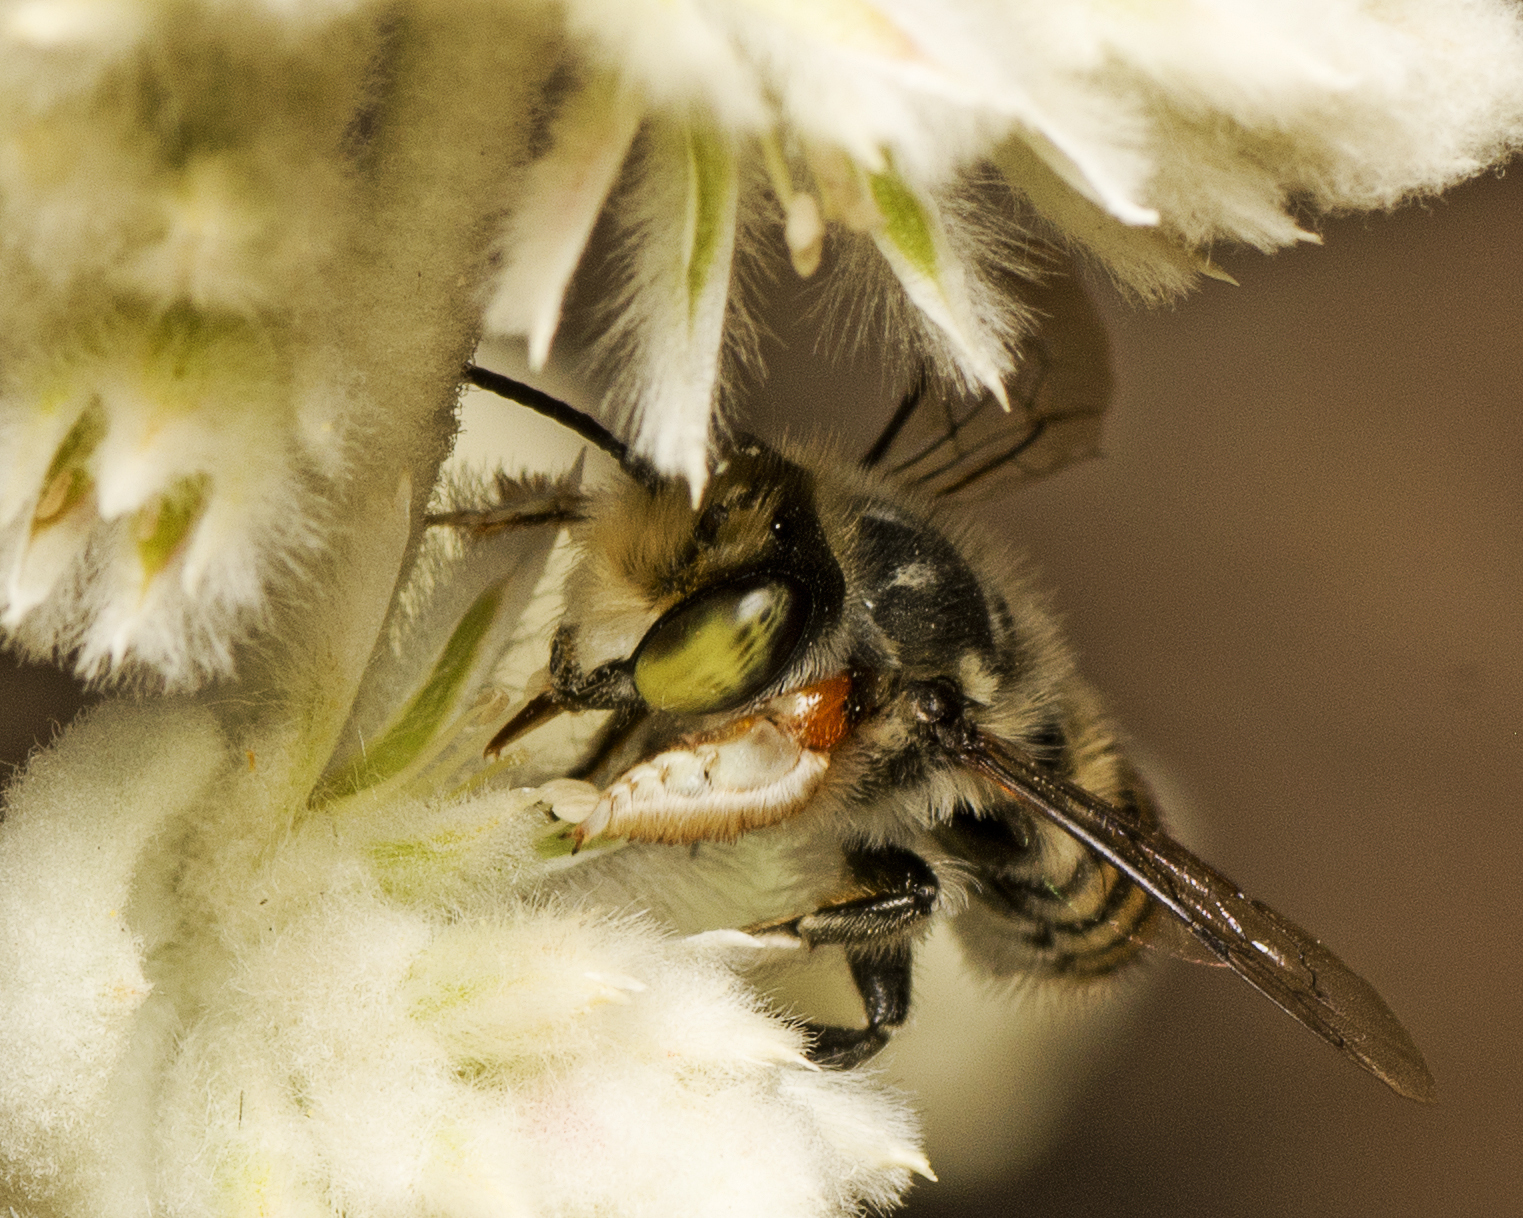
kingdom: Animalia
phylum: Arthropoda
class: Insecta
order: Hymenoptera
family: Megachilidae
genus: Megachile
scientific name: Megachile macularis
